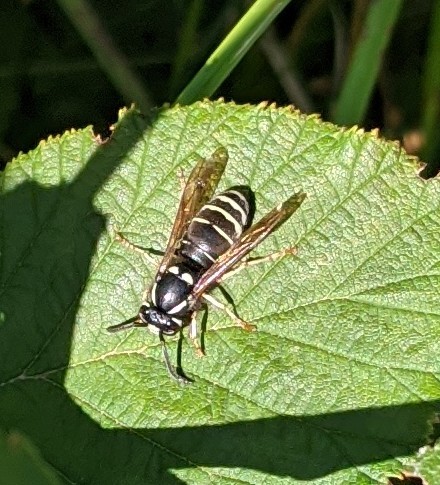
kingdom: Animalia
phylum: Arthropoda
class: Insecta
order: Hymenoptera
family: Vespidae
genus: Vespula
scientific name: Vespula consobrina
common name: Blackjacket
